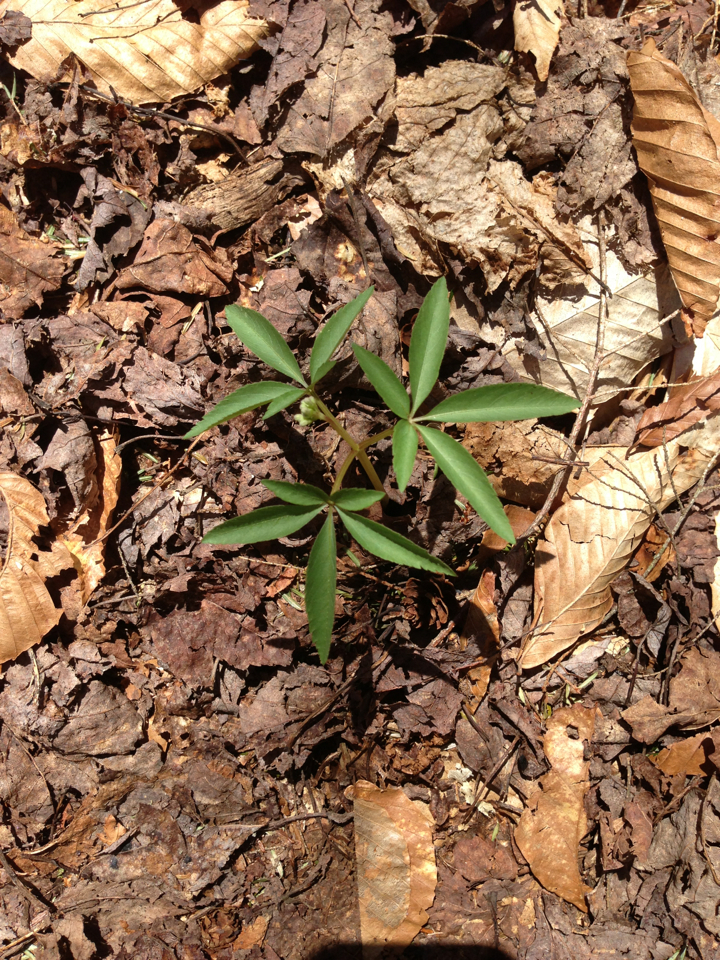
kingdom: Plantae
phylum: Tracheophyta
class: Magnoliopsida
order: Apiales
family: Araliaceae
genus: Panax
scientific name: Panax trifolius
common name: Dwarf ginseng
